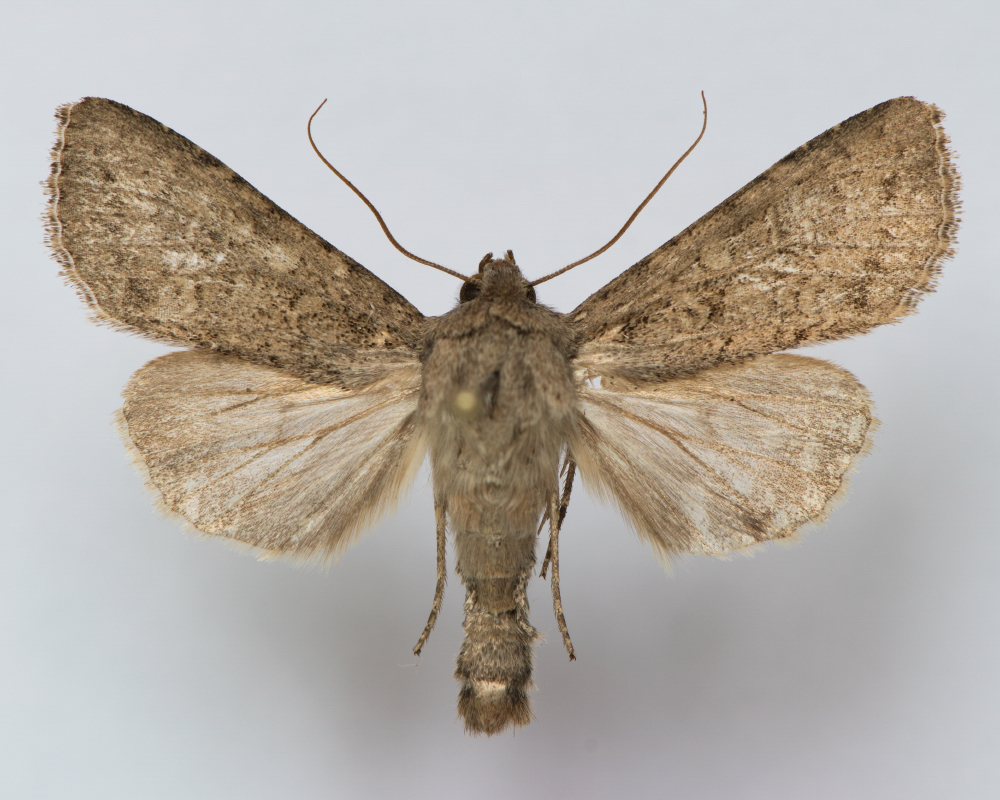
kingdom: Animalia
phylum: Arthropoda
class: Insecta
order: Lepidoptera
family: Noctuidae
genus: Sideridis
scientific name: Sideridis turbida
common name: White colon
